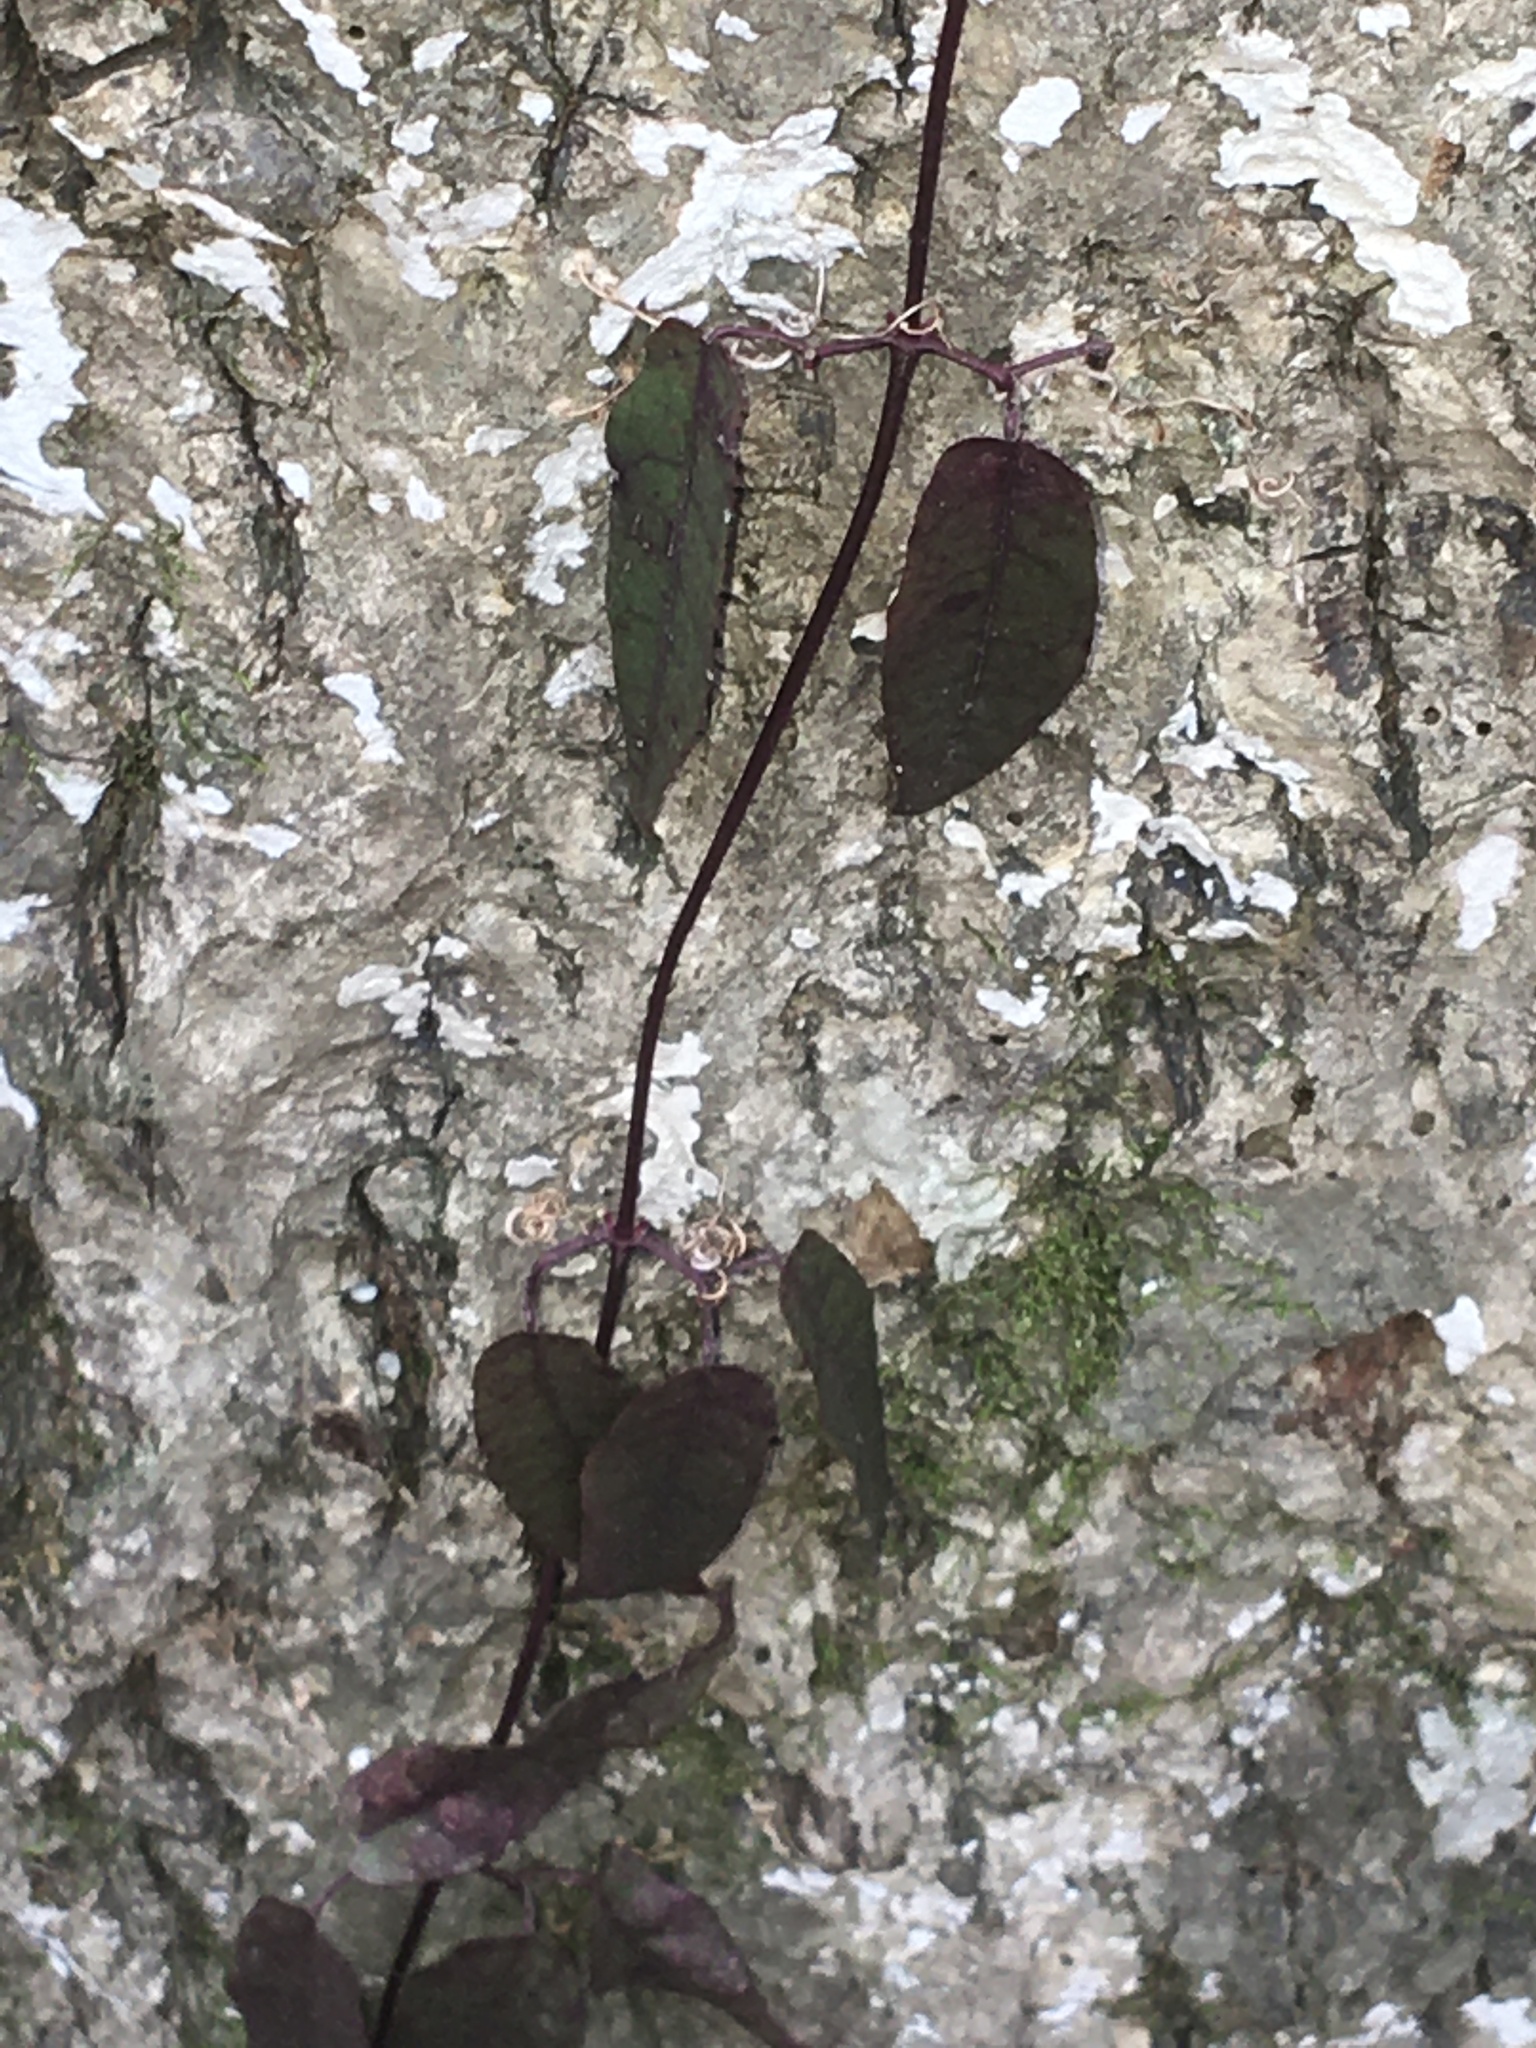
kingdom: Plantae
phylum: Tracheophyta
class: Magnoliopsida
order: Lamiales
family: Bignoniaceae
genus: Bignonia
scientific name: Bignonia capreolata
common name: Crossvine
